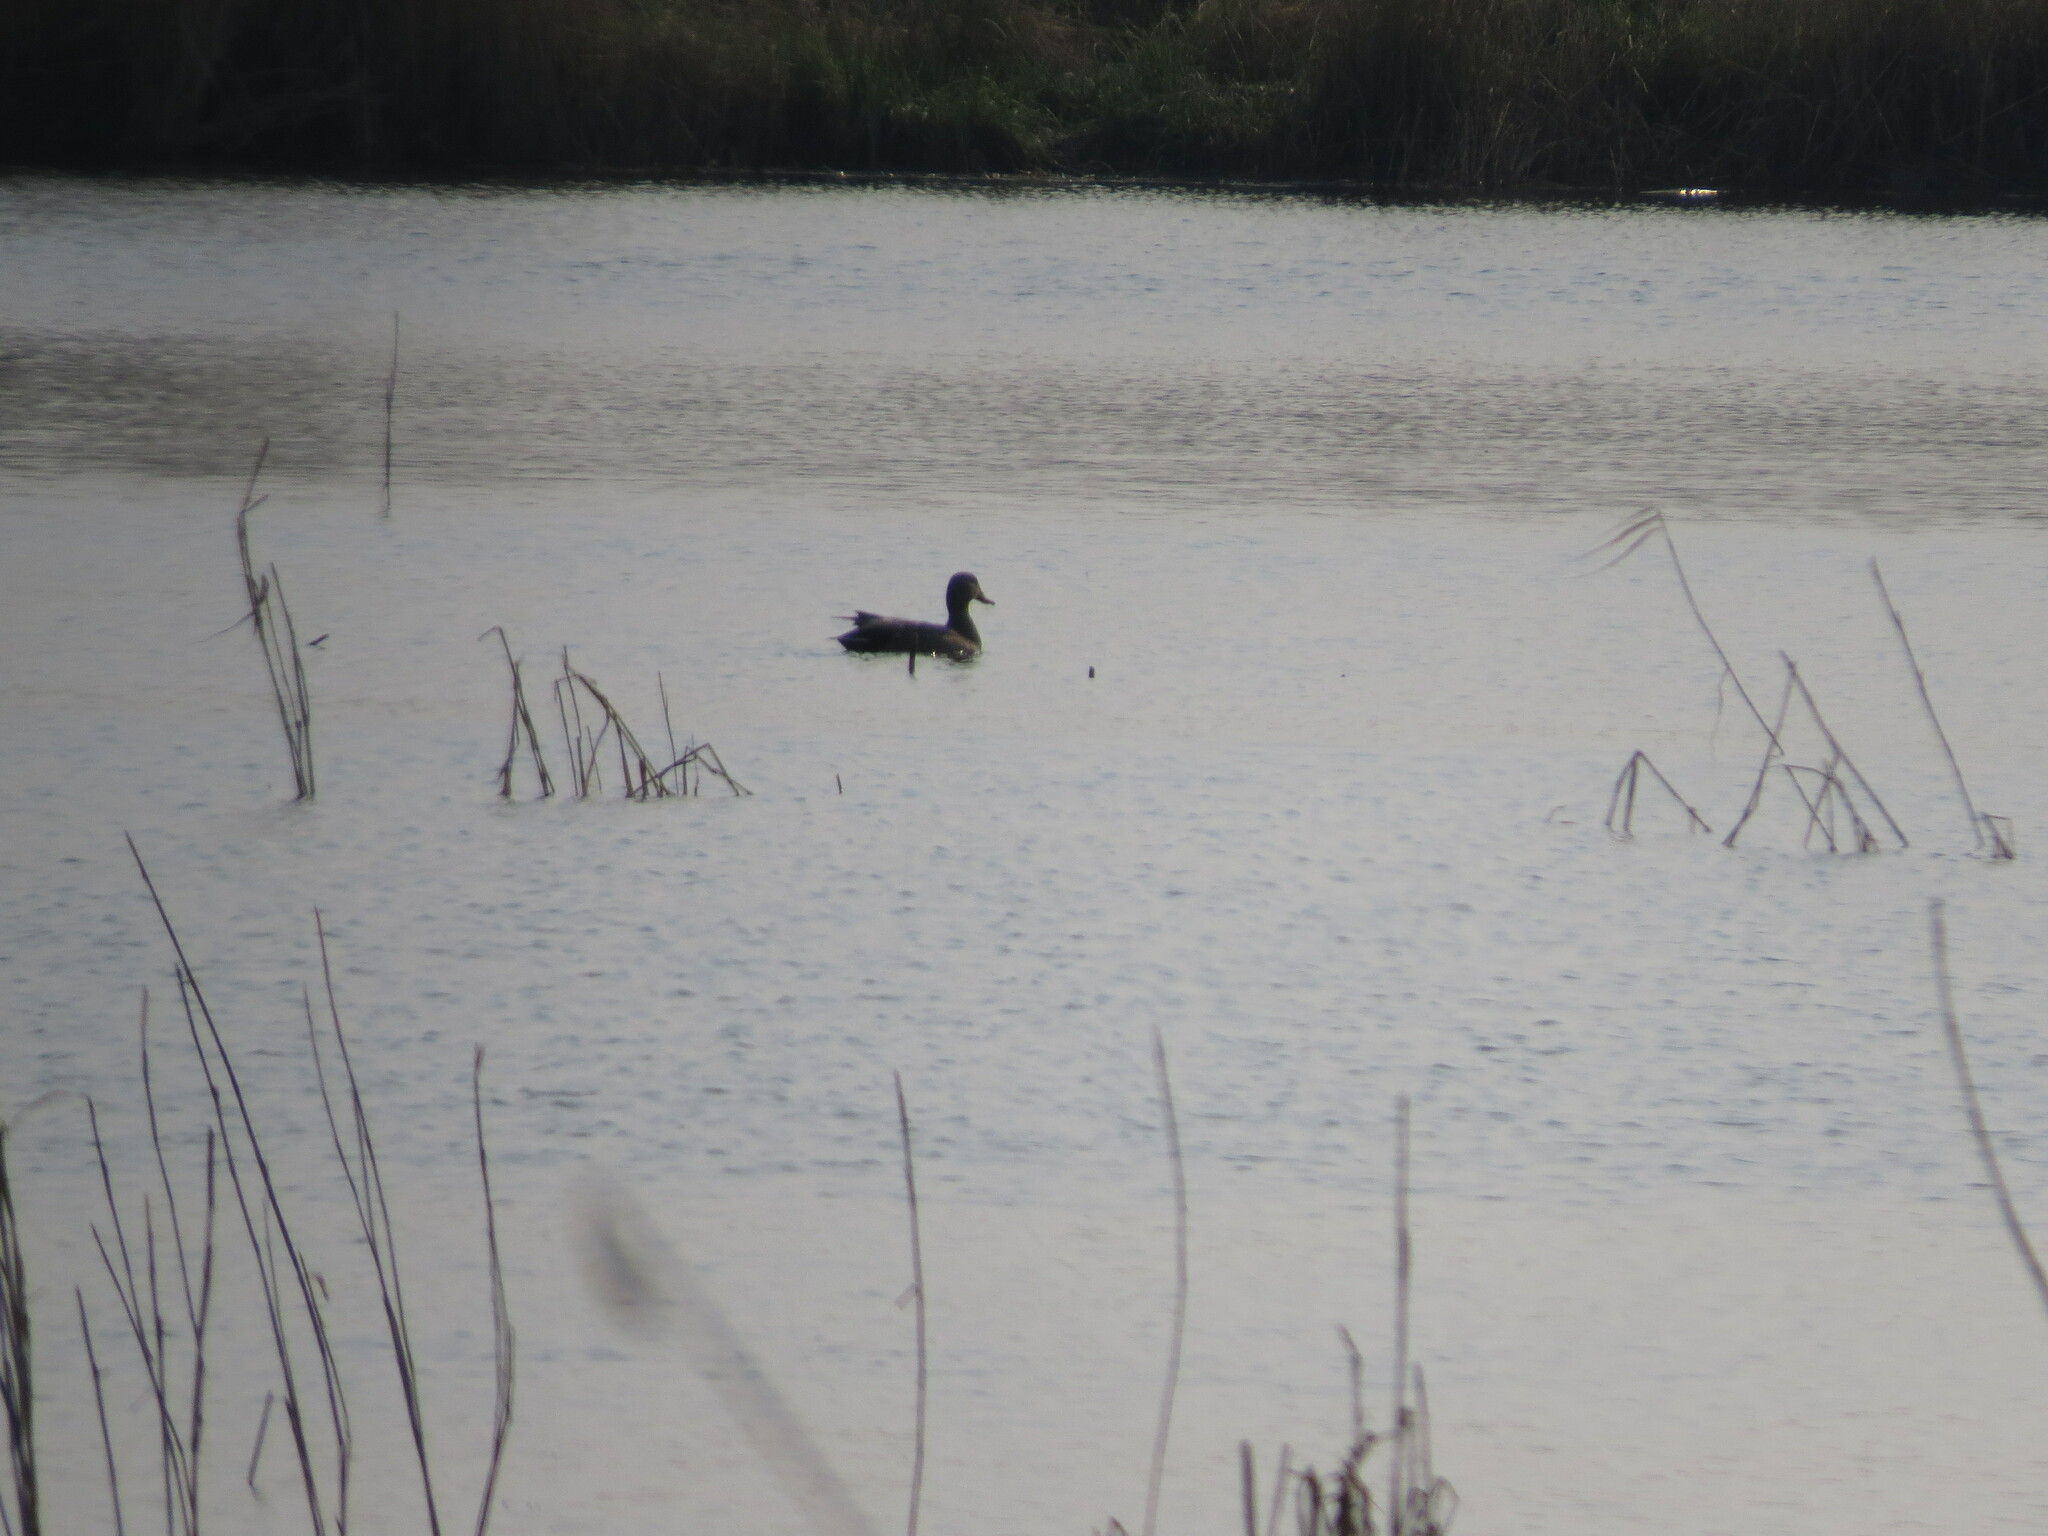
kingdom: Animalia
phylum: Chordata
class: Aves
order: Anseriformes
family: Anatidae
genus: Mareca
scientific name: Mareca strepera
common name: Gadwall
